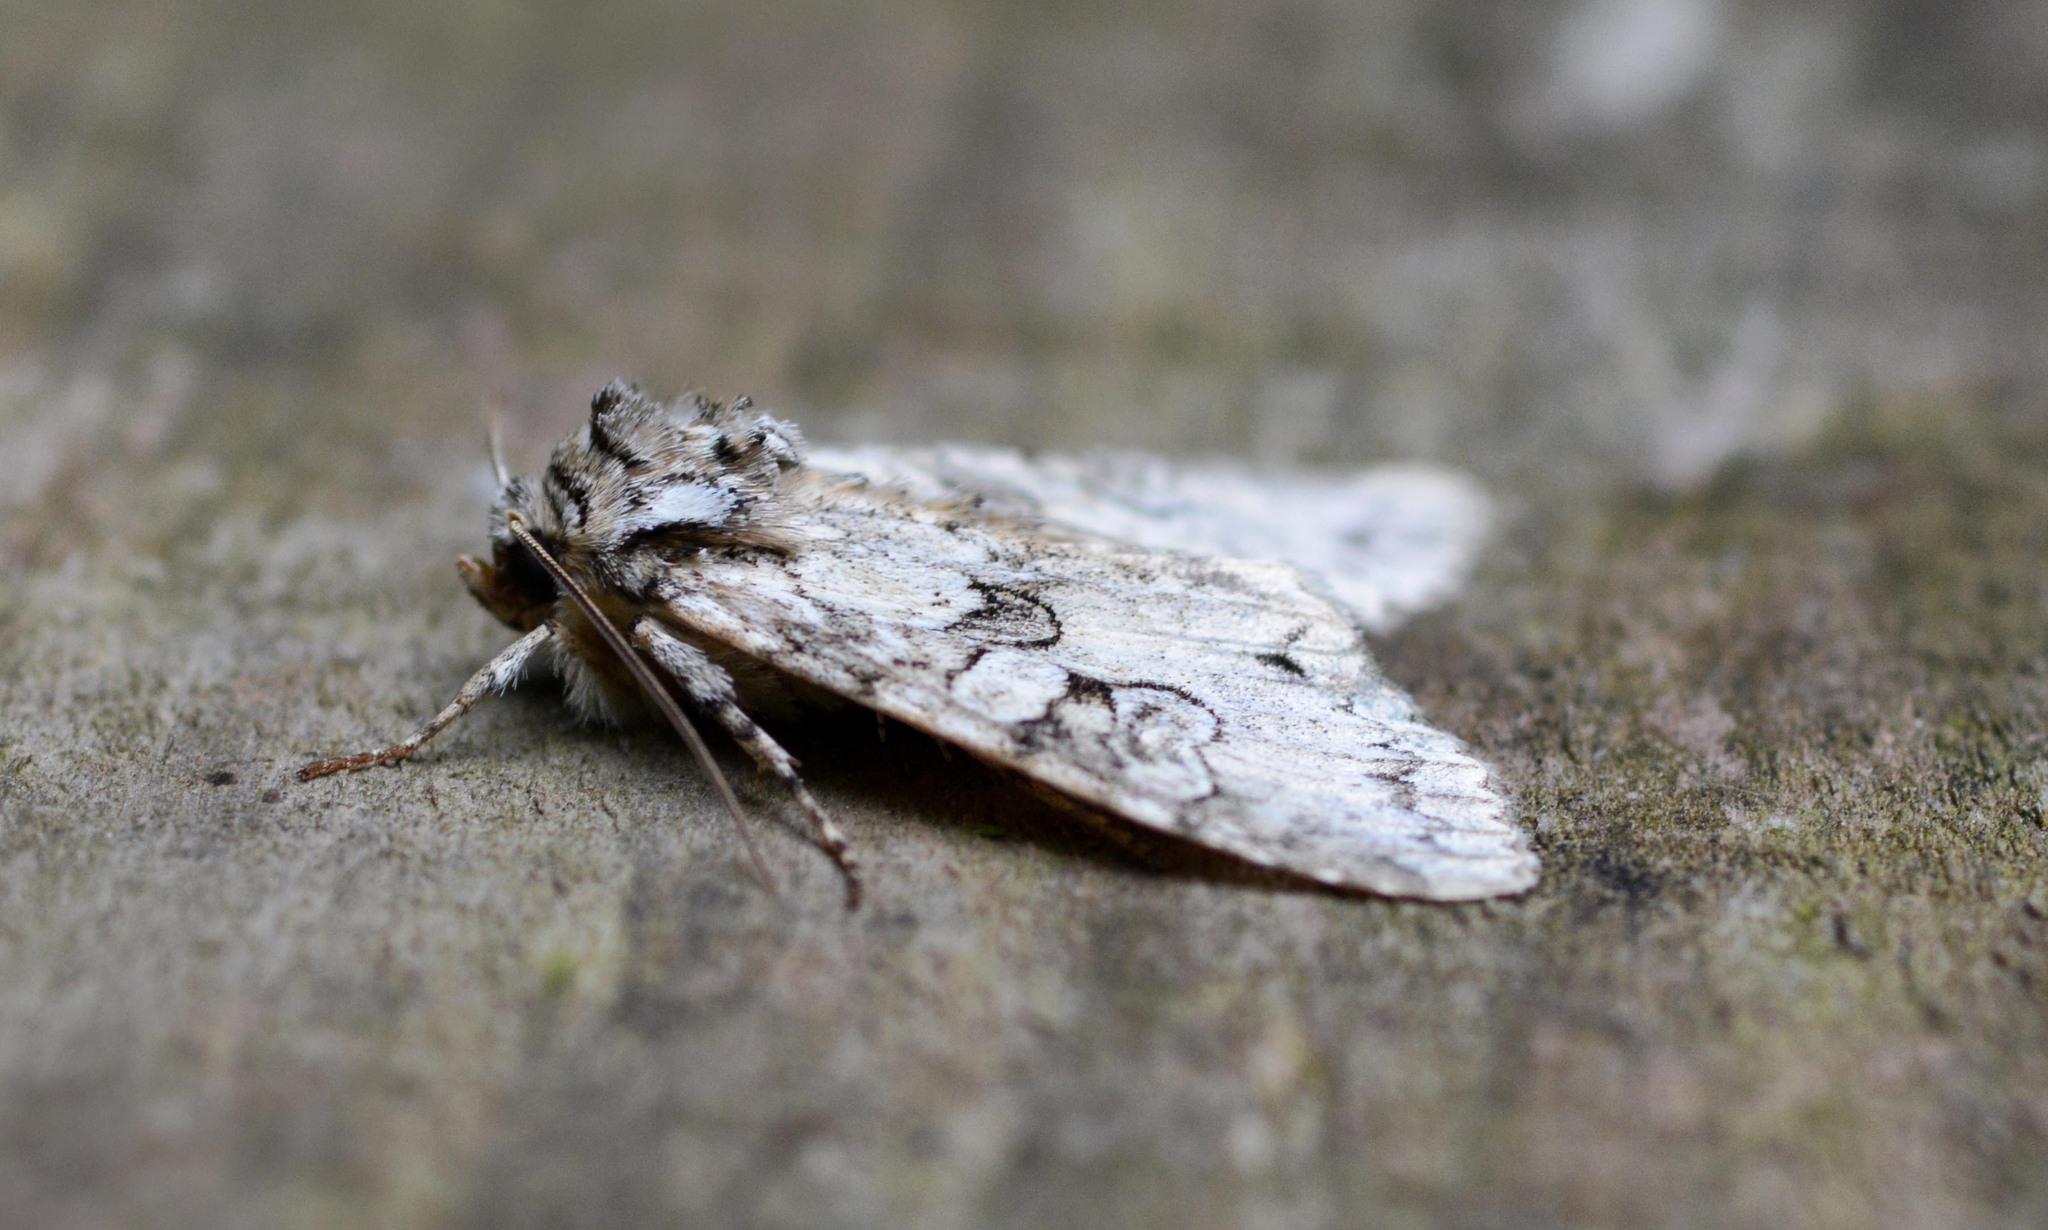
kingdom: Animalia
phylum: Arthropoda
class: Insecta
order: Lepidoptera
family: Noctuidae
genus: Polia
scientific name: Polia nebulosa
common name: Grey arches
